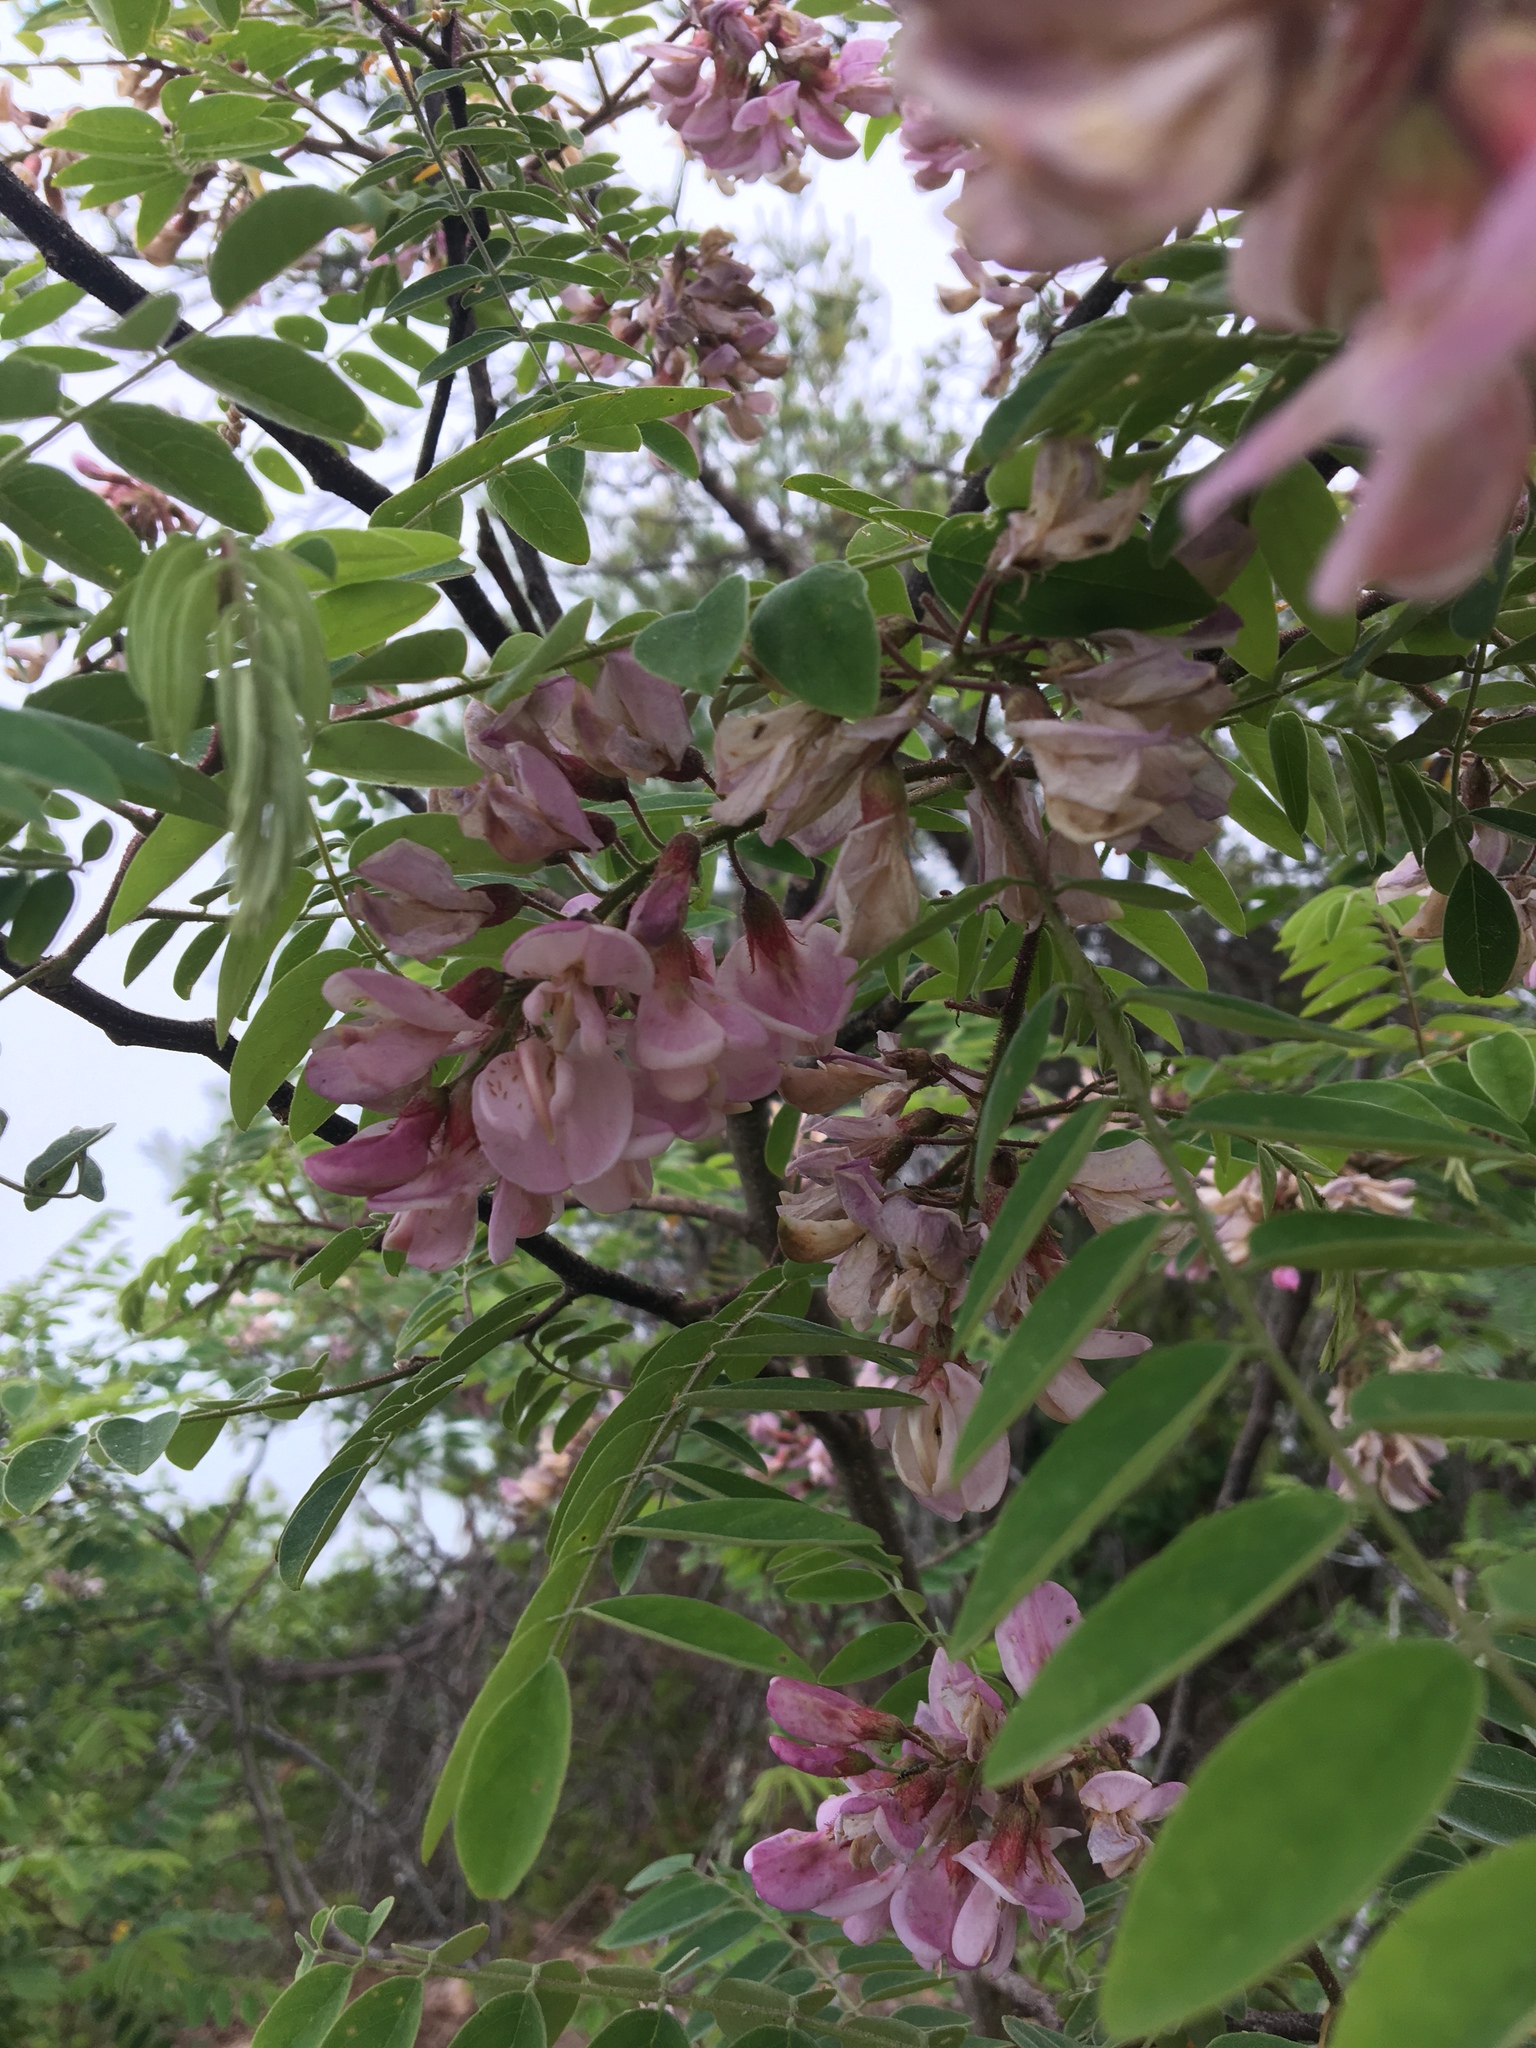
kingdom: Plantae
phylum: Tracheophyta
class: Magnoliopsida
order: Fabales
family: Fabaceae
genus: Robinia
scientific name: Robinia hispida
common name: Bristly locust
